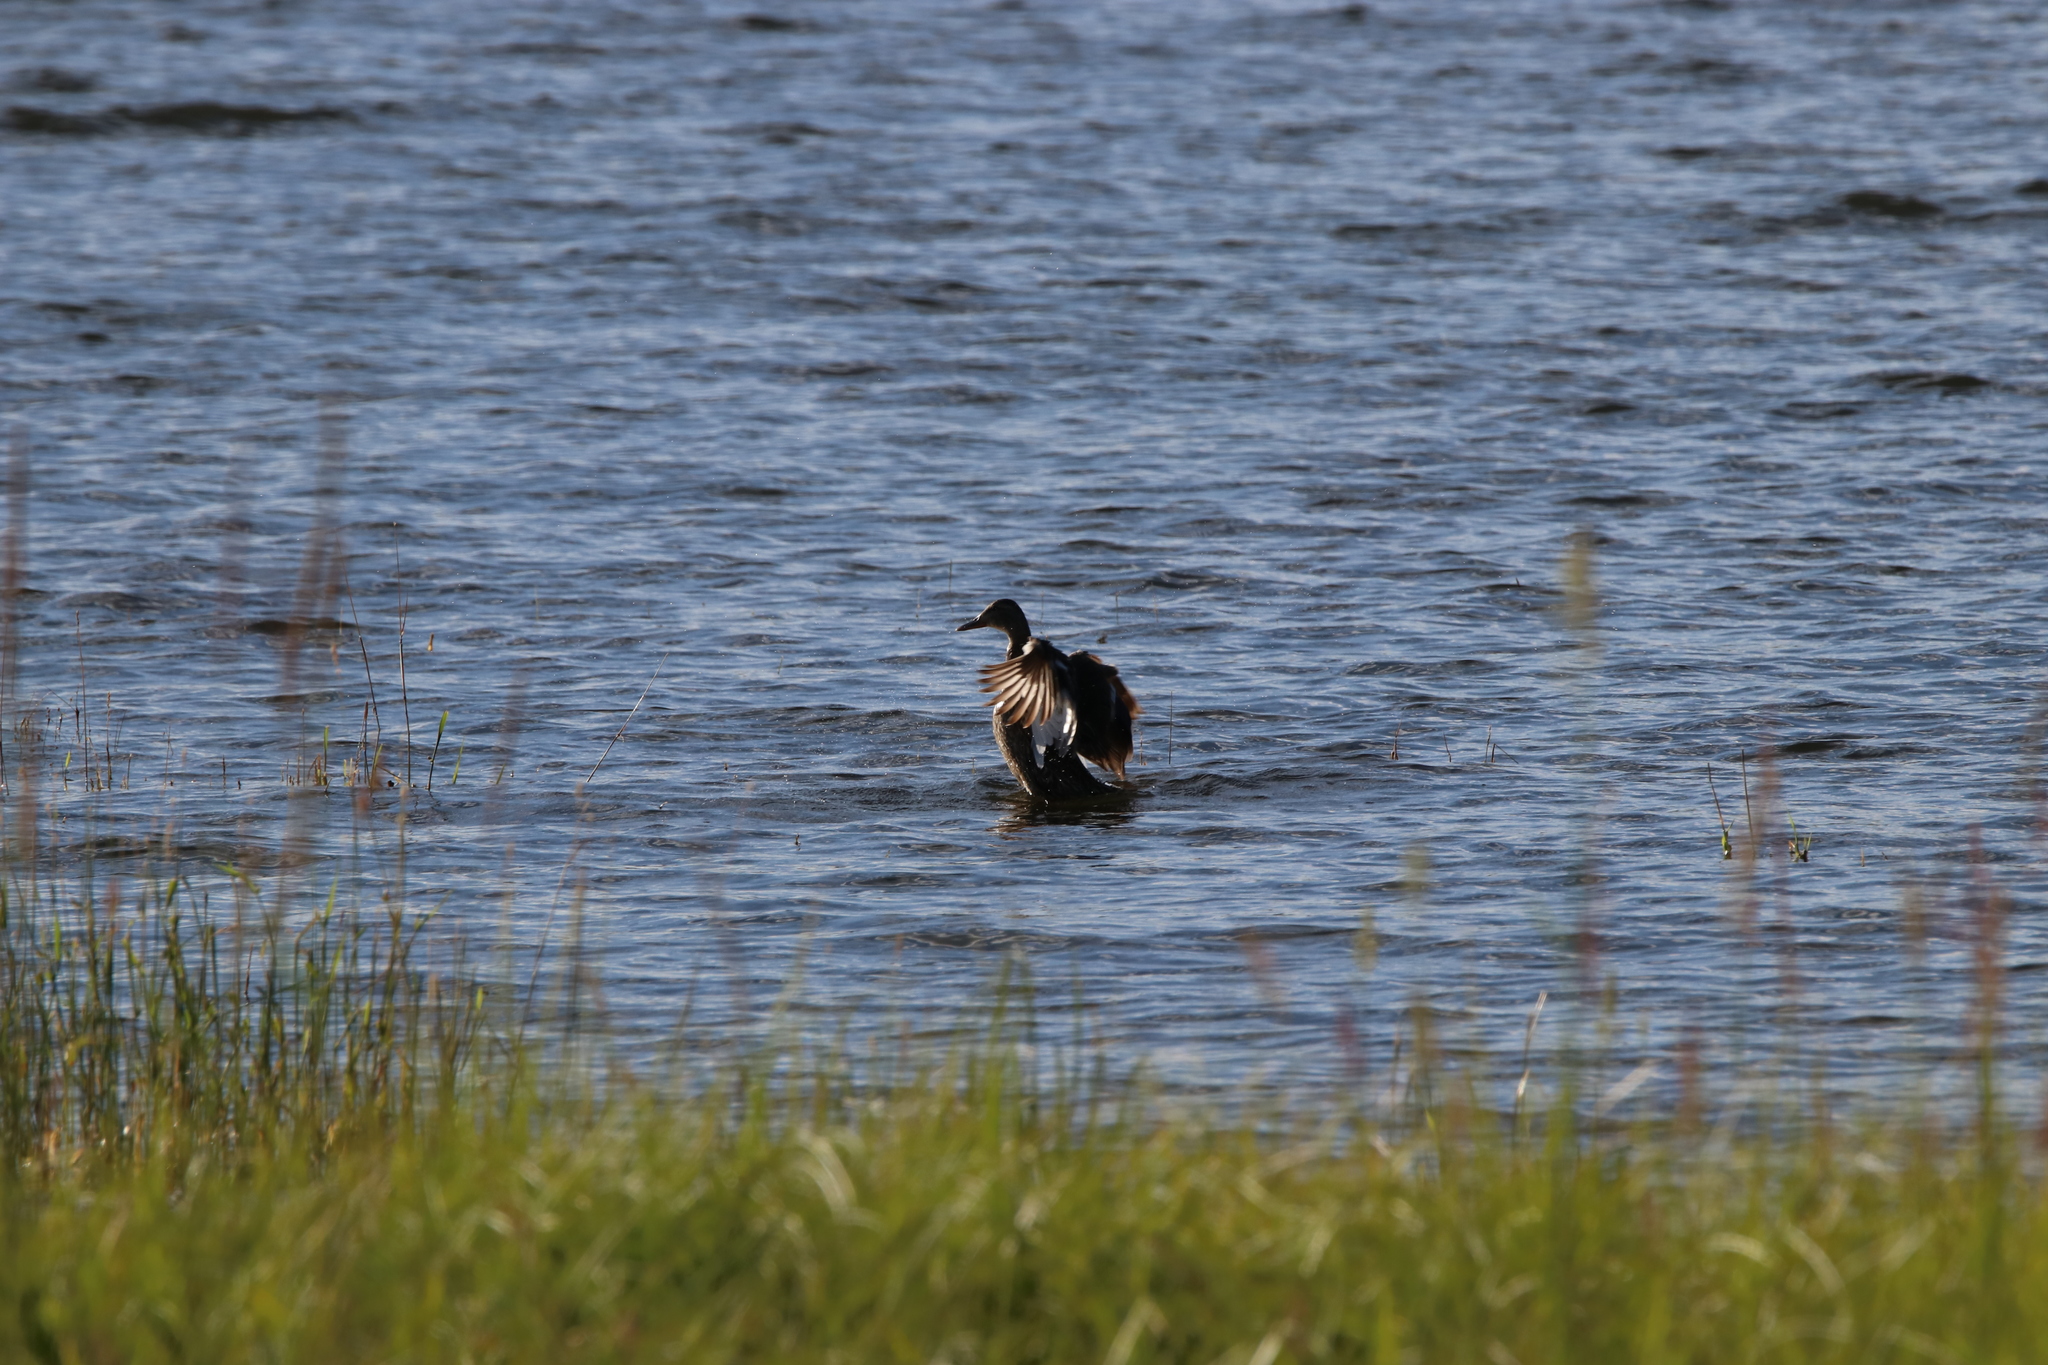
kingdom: Animalia
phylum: Chordata
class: Aves
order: Anseriformes
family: Anatidae
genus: Anas
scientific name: Anas platyrhynchos
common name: Mallard
